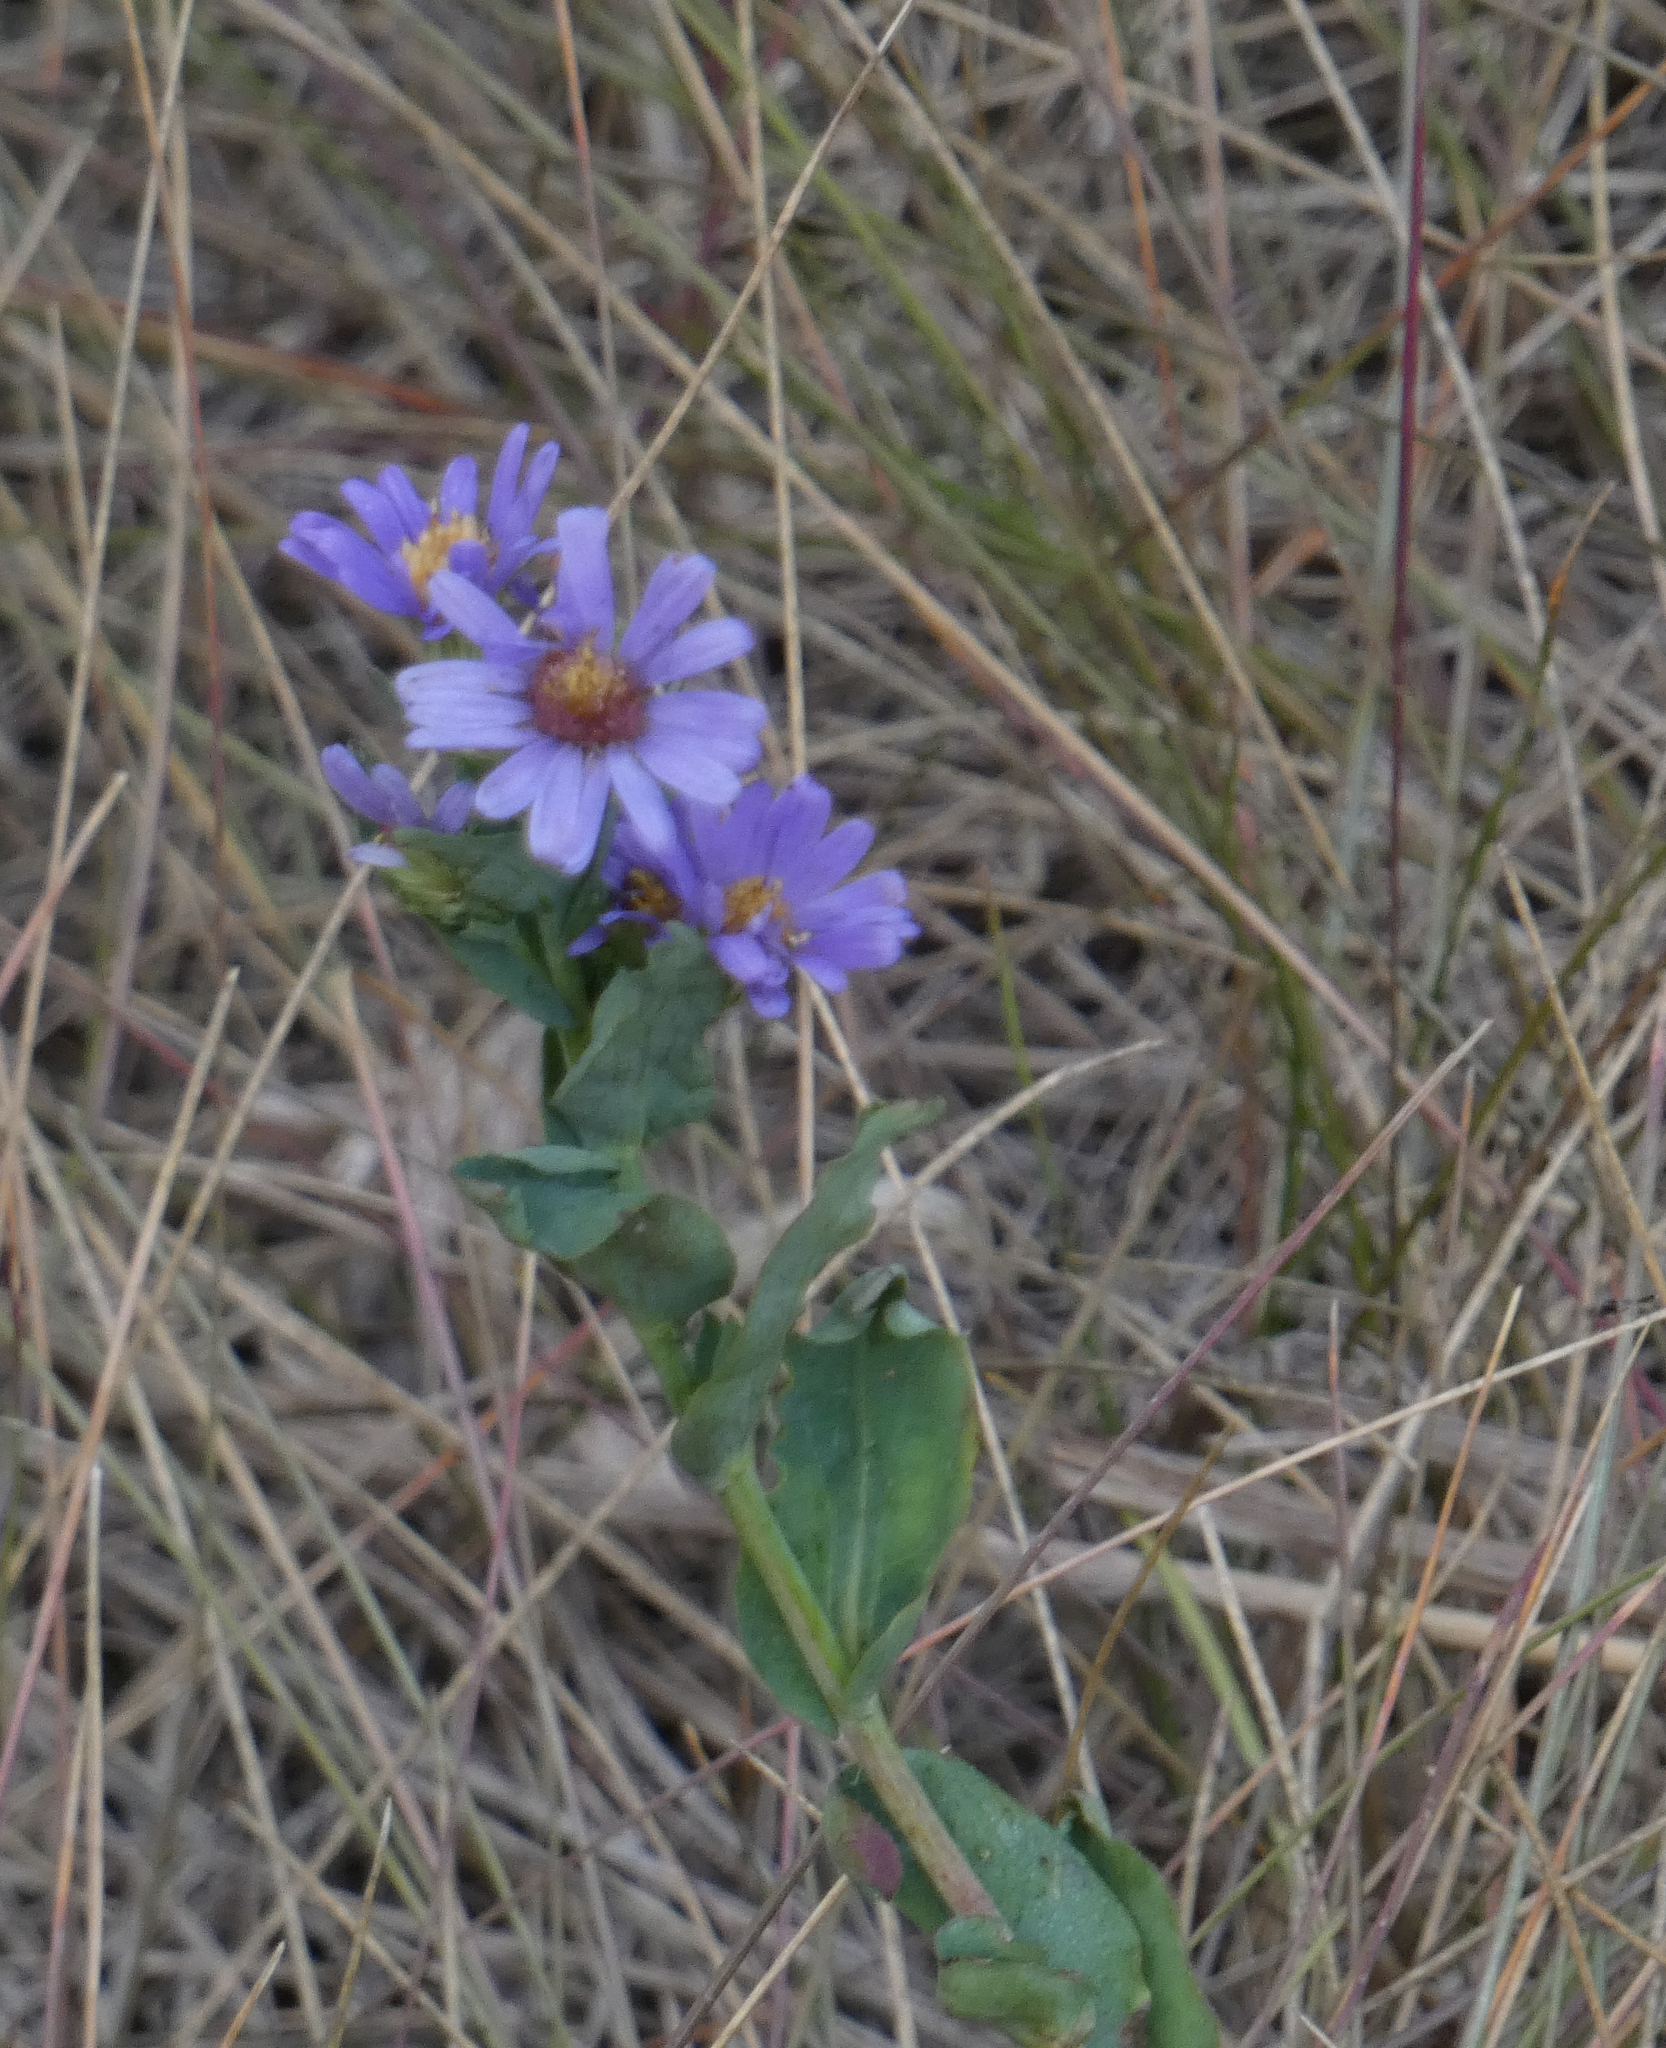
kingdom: Plantae
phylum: Tracheophyta
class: Magnoliopsida
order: Asterales
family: Asteraceae
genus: Symphyotrichum
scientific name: Symphyotrichum laeve
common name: Glaucous aster
